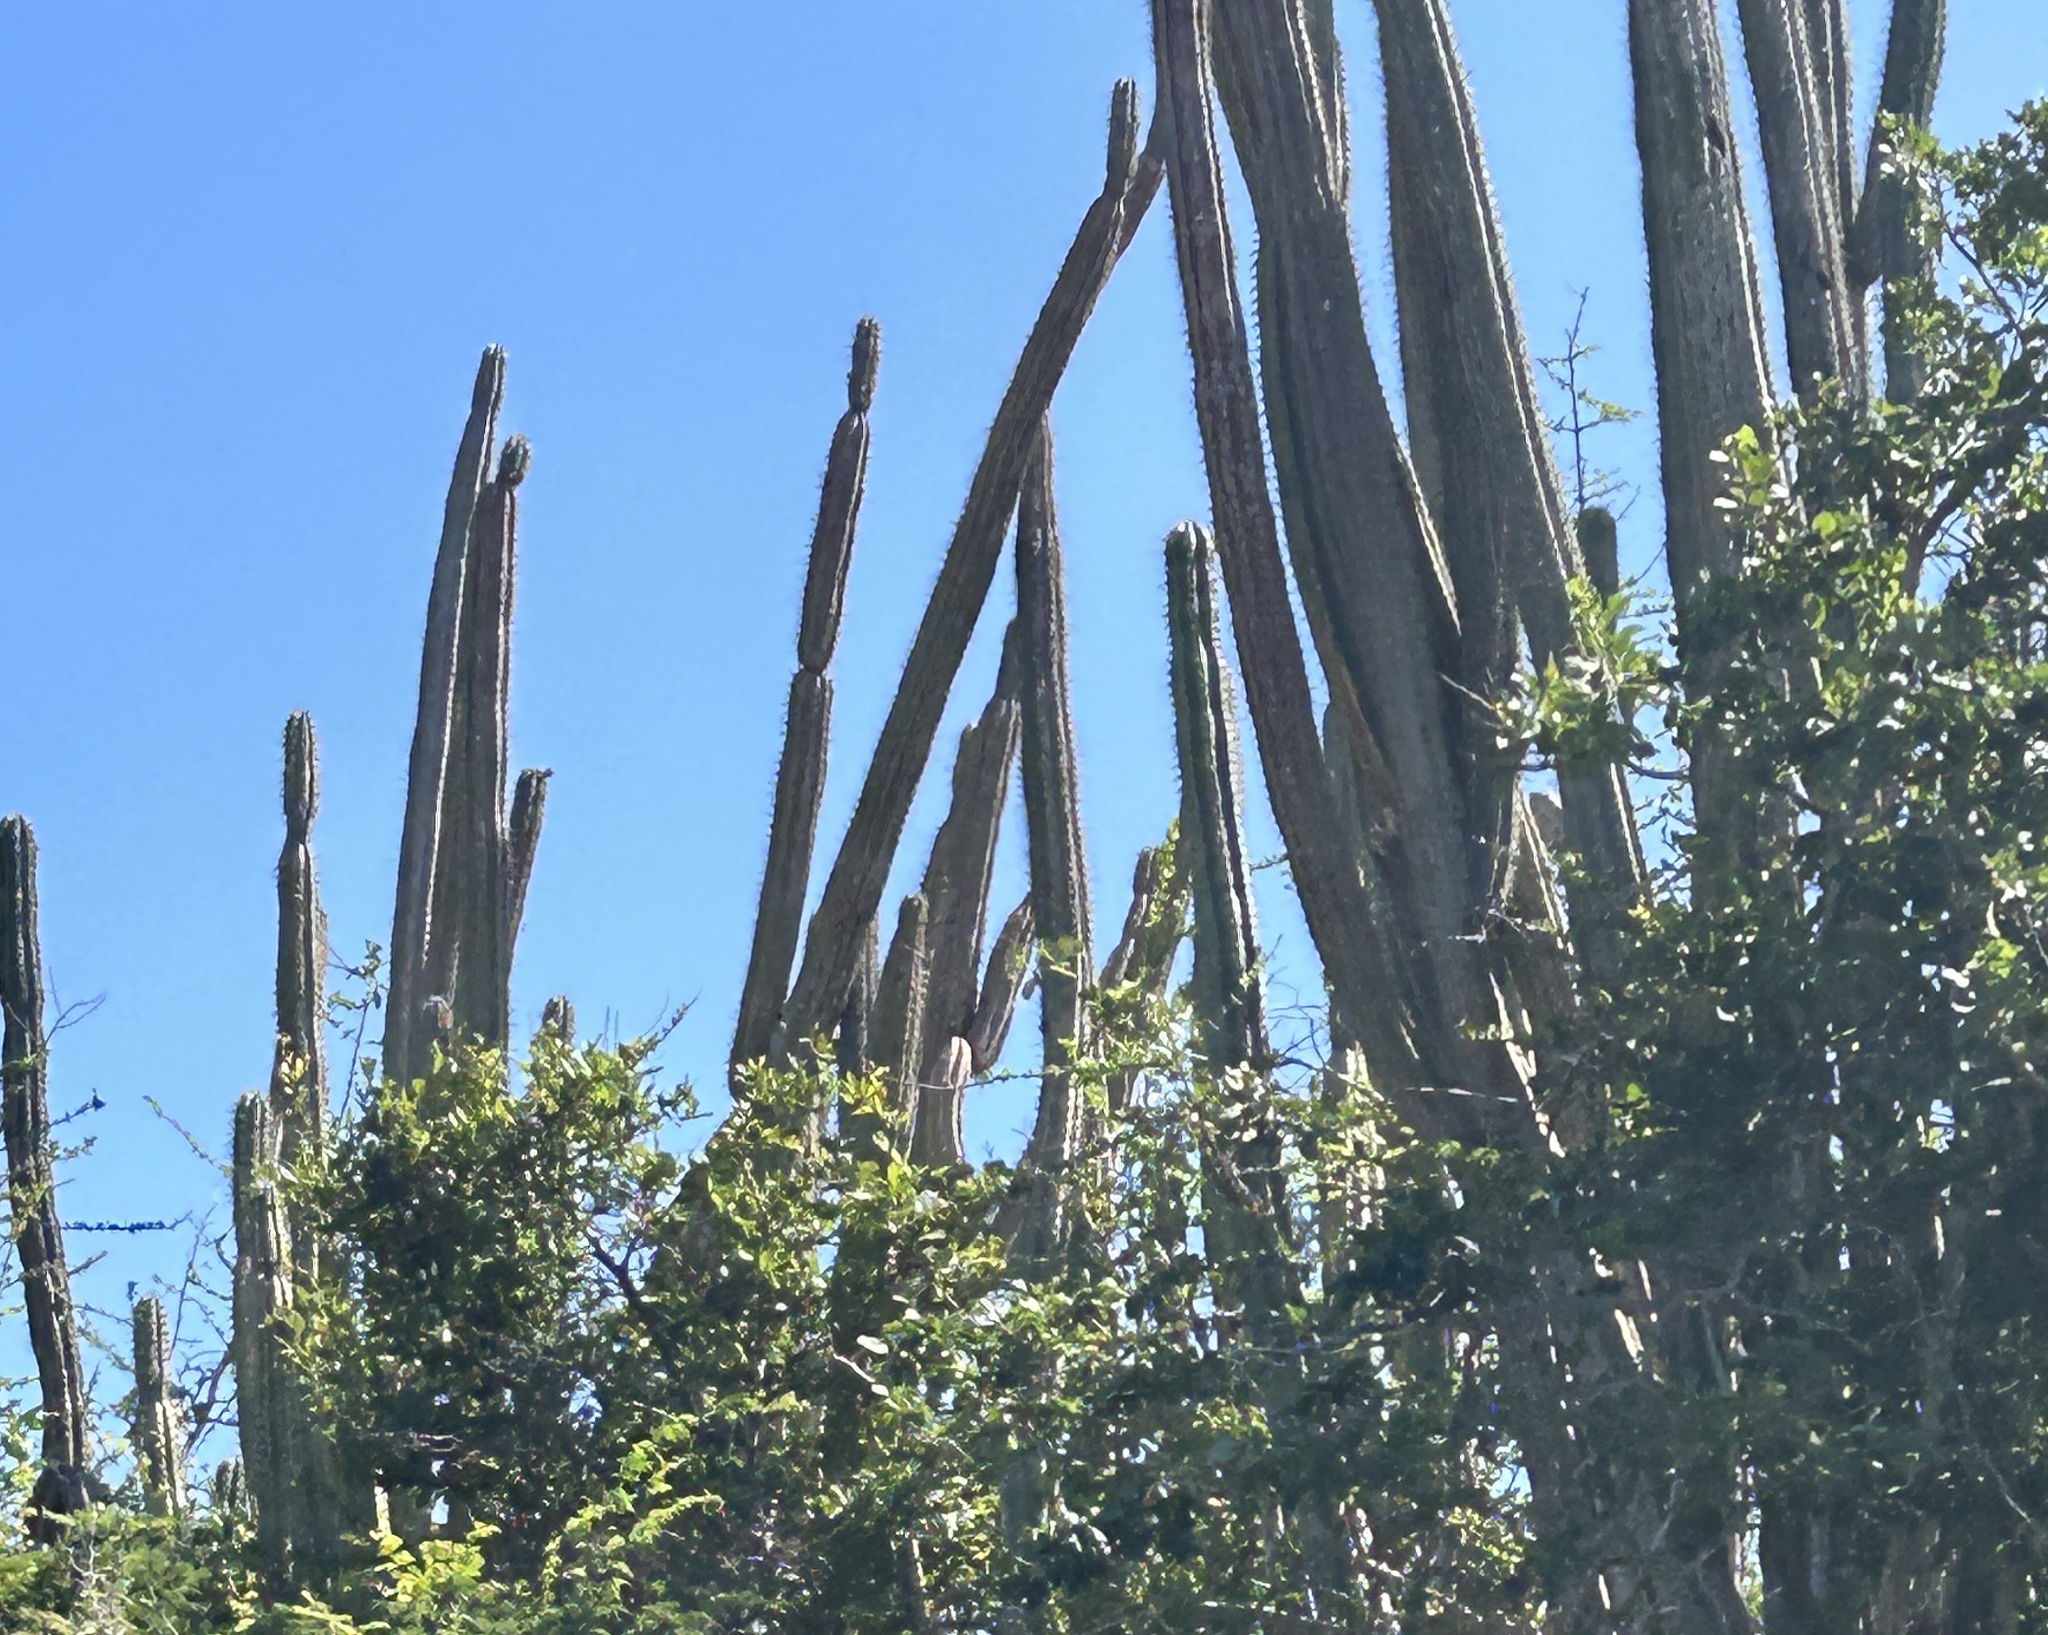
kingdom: Plantae
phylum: Tracheophyta
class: Magnoliopsida
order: Caryophyllales
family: Cactaceae
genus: Cereus
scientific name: Cereus repandus
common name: Sweetpotato cactus
